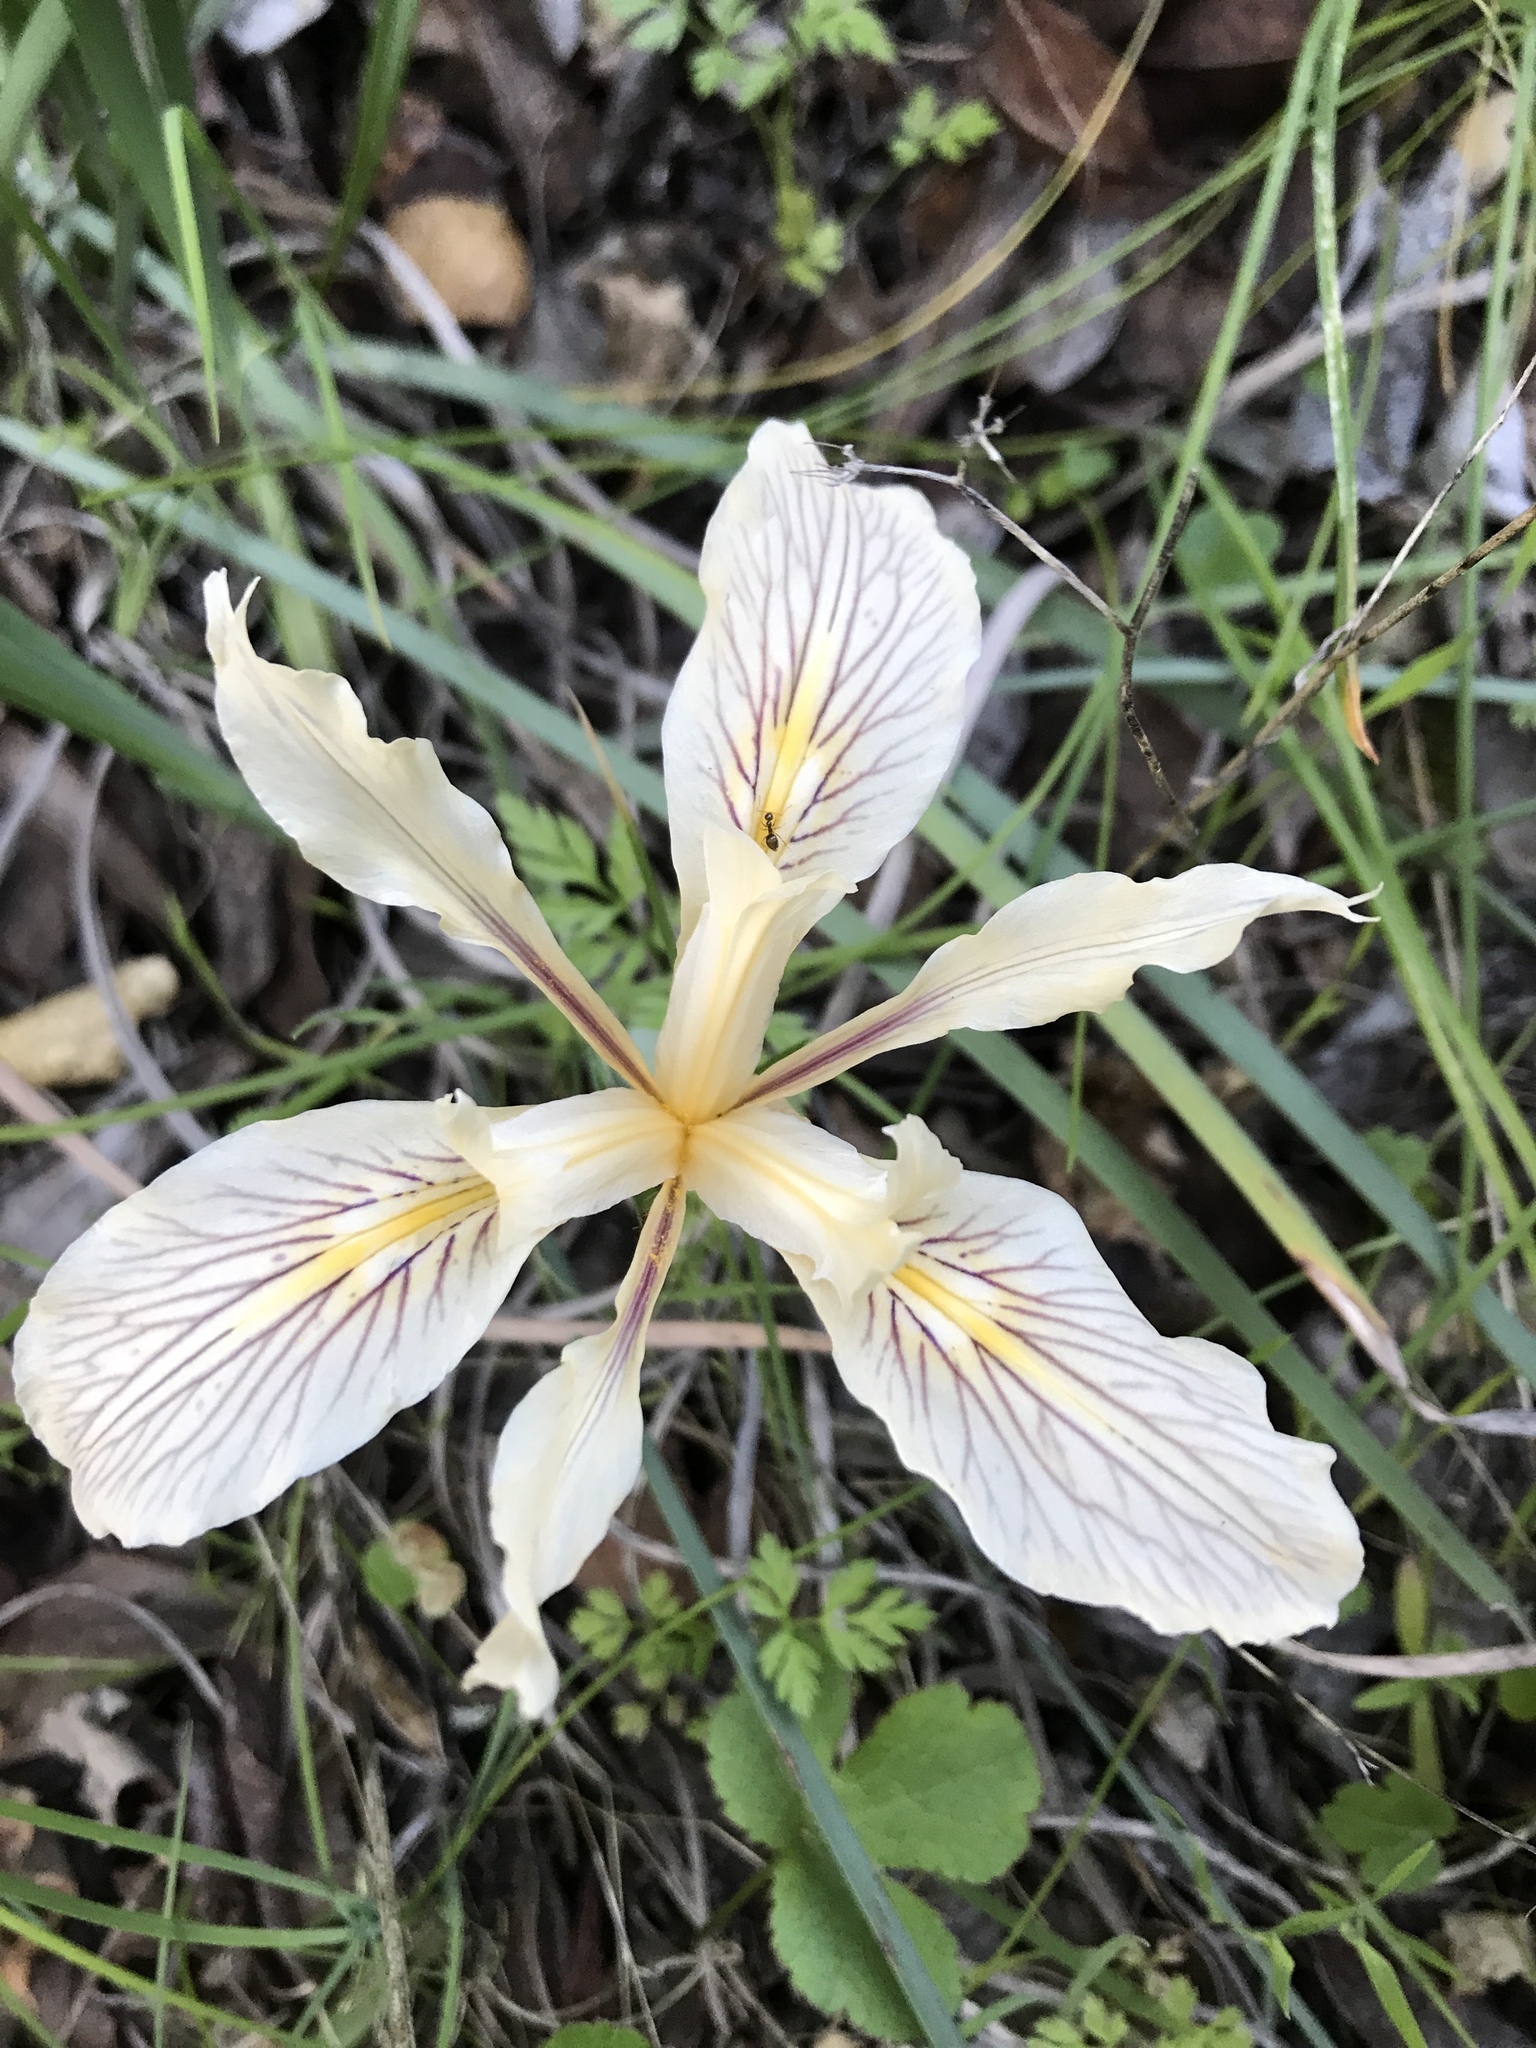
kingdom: Plantae
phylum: Tracheophyta
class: Liliopsida
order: Asparagales
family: Iridaceae
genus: Iris
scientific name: Iris fernaldii
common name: Fernald's iris
